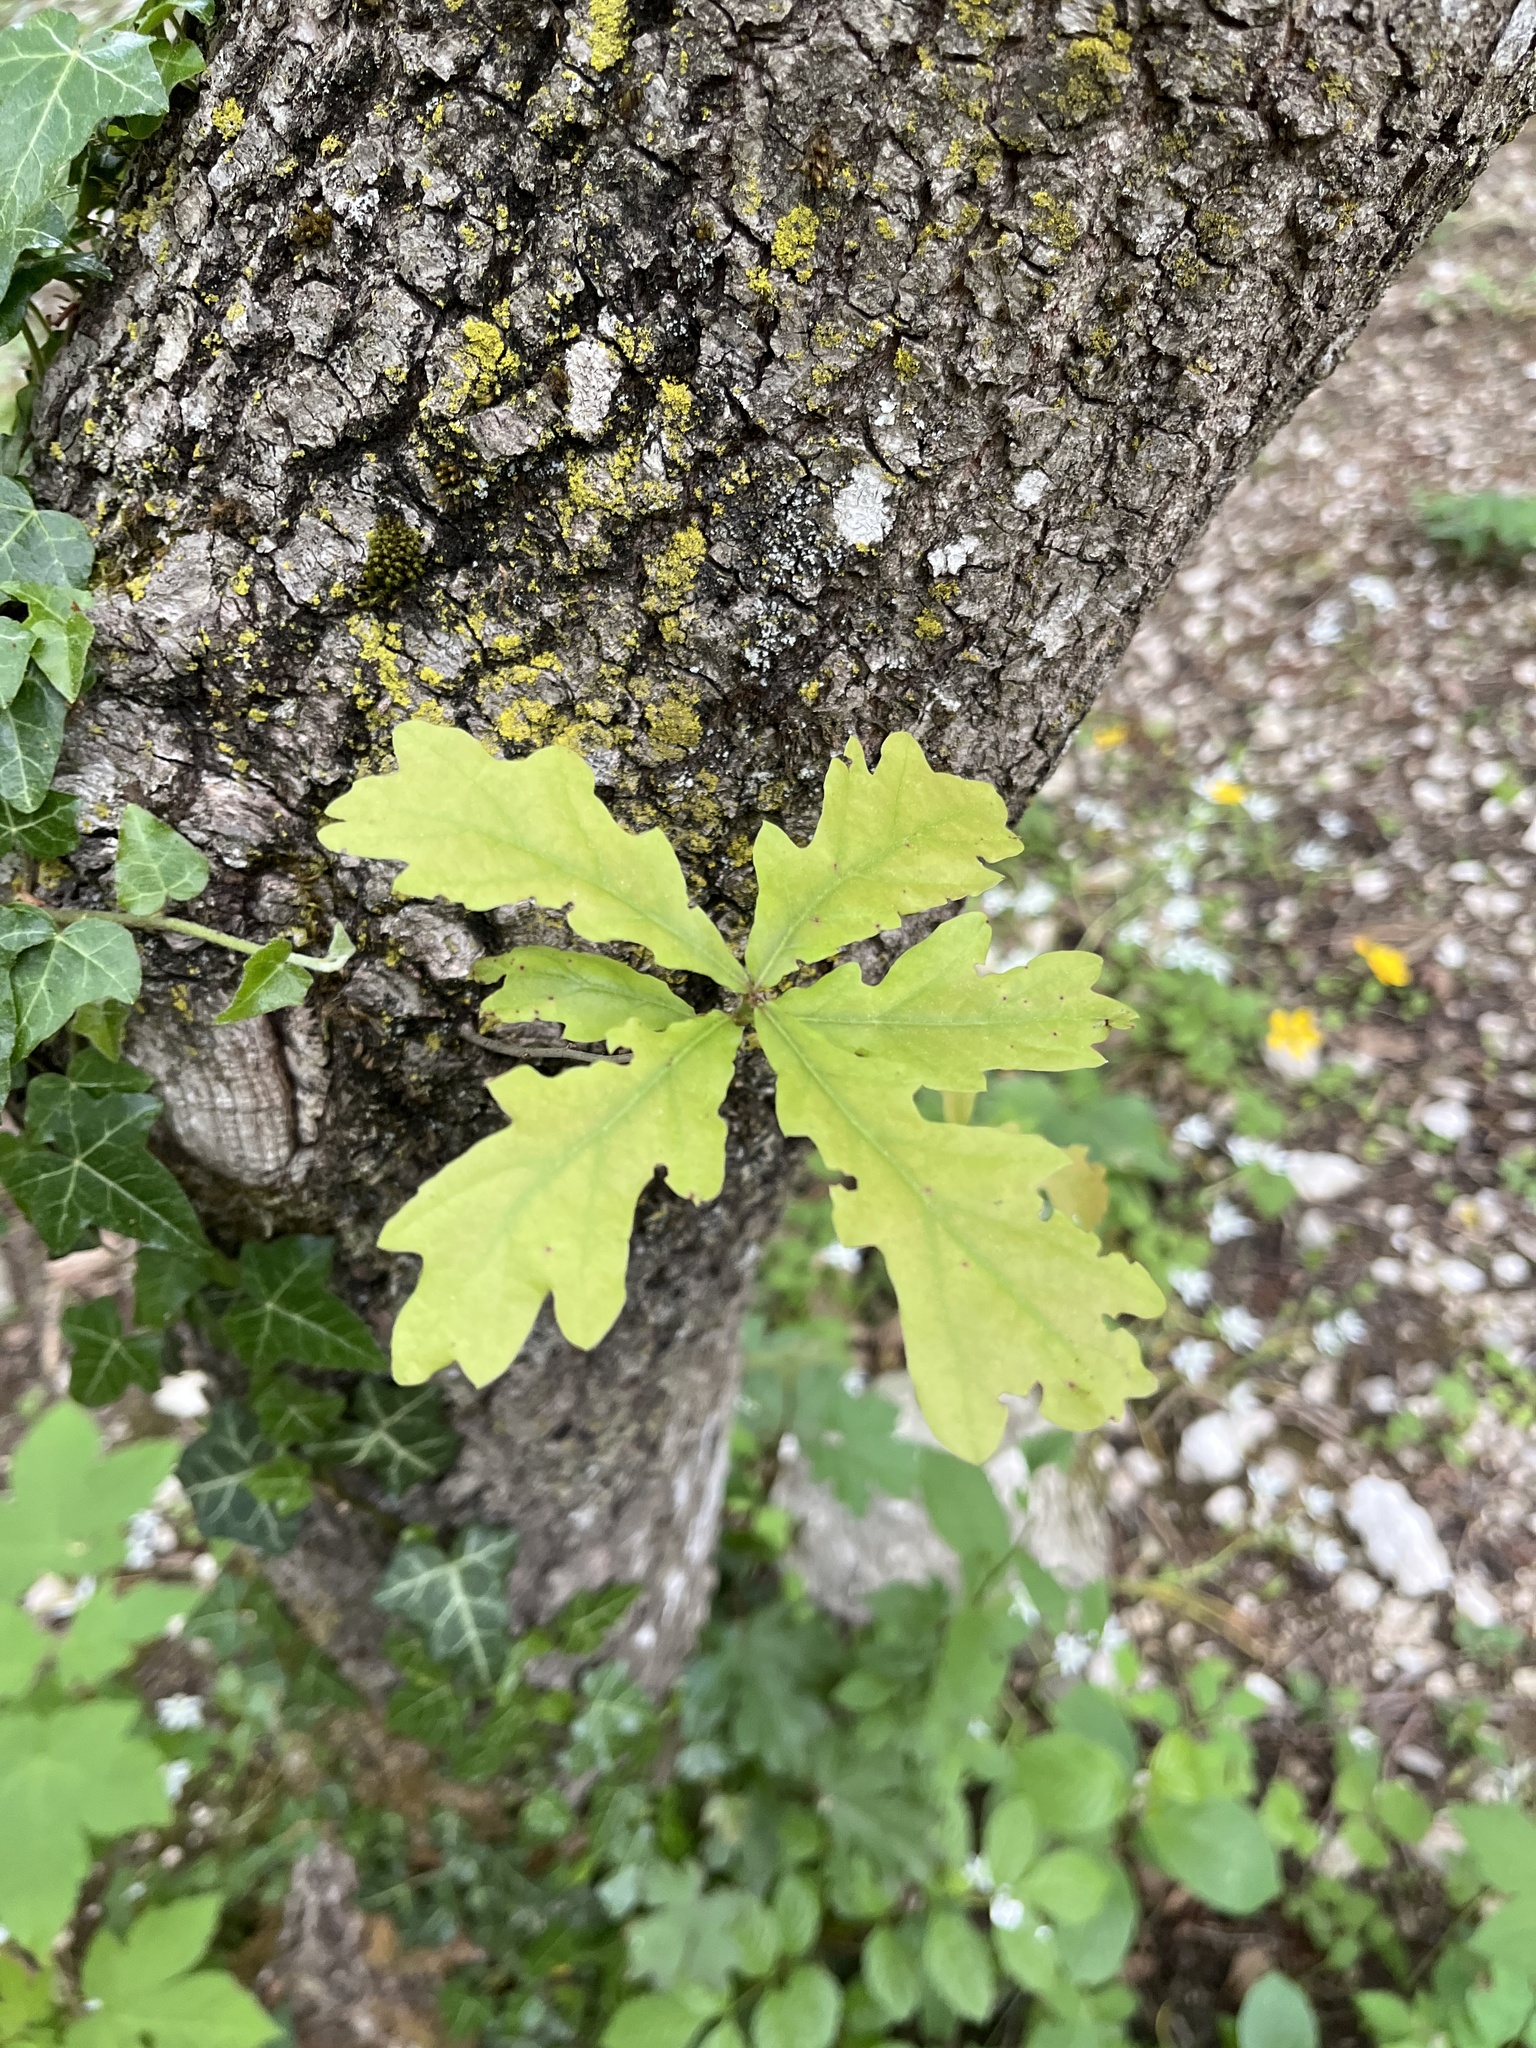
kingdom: Plantae
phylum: Tracheophyta
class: Magnoliopsida
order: Fagales
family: Fagaceae
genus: Quercus
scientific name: Quercus robur
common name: Pedunculate oak
